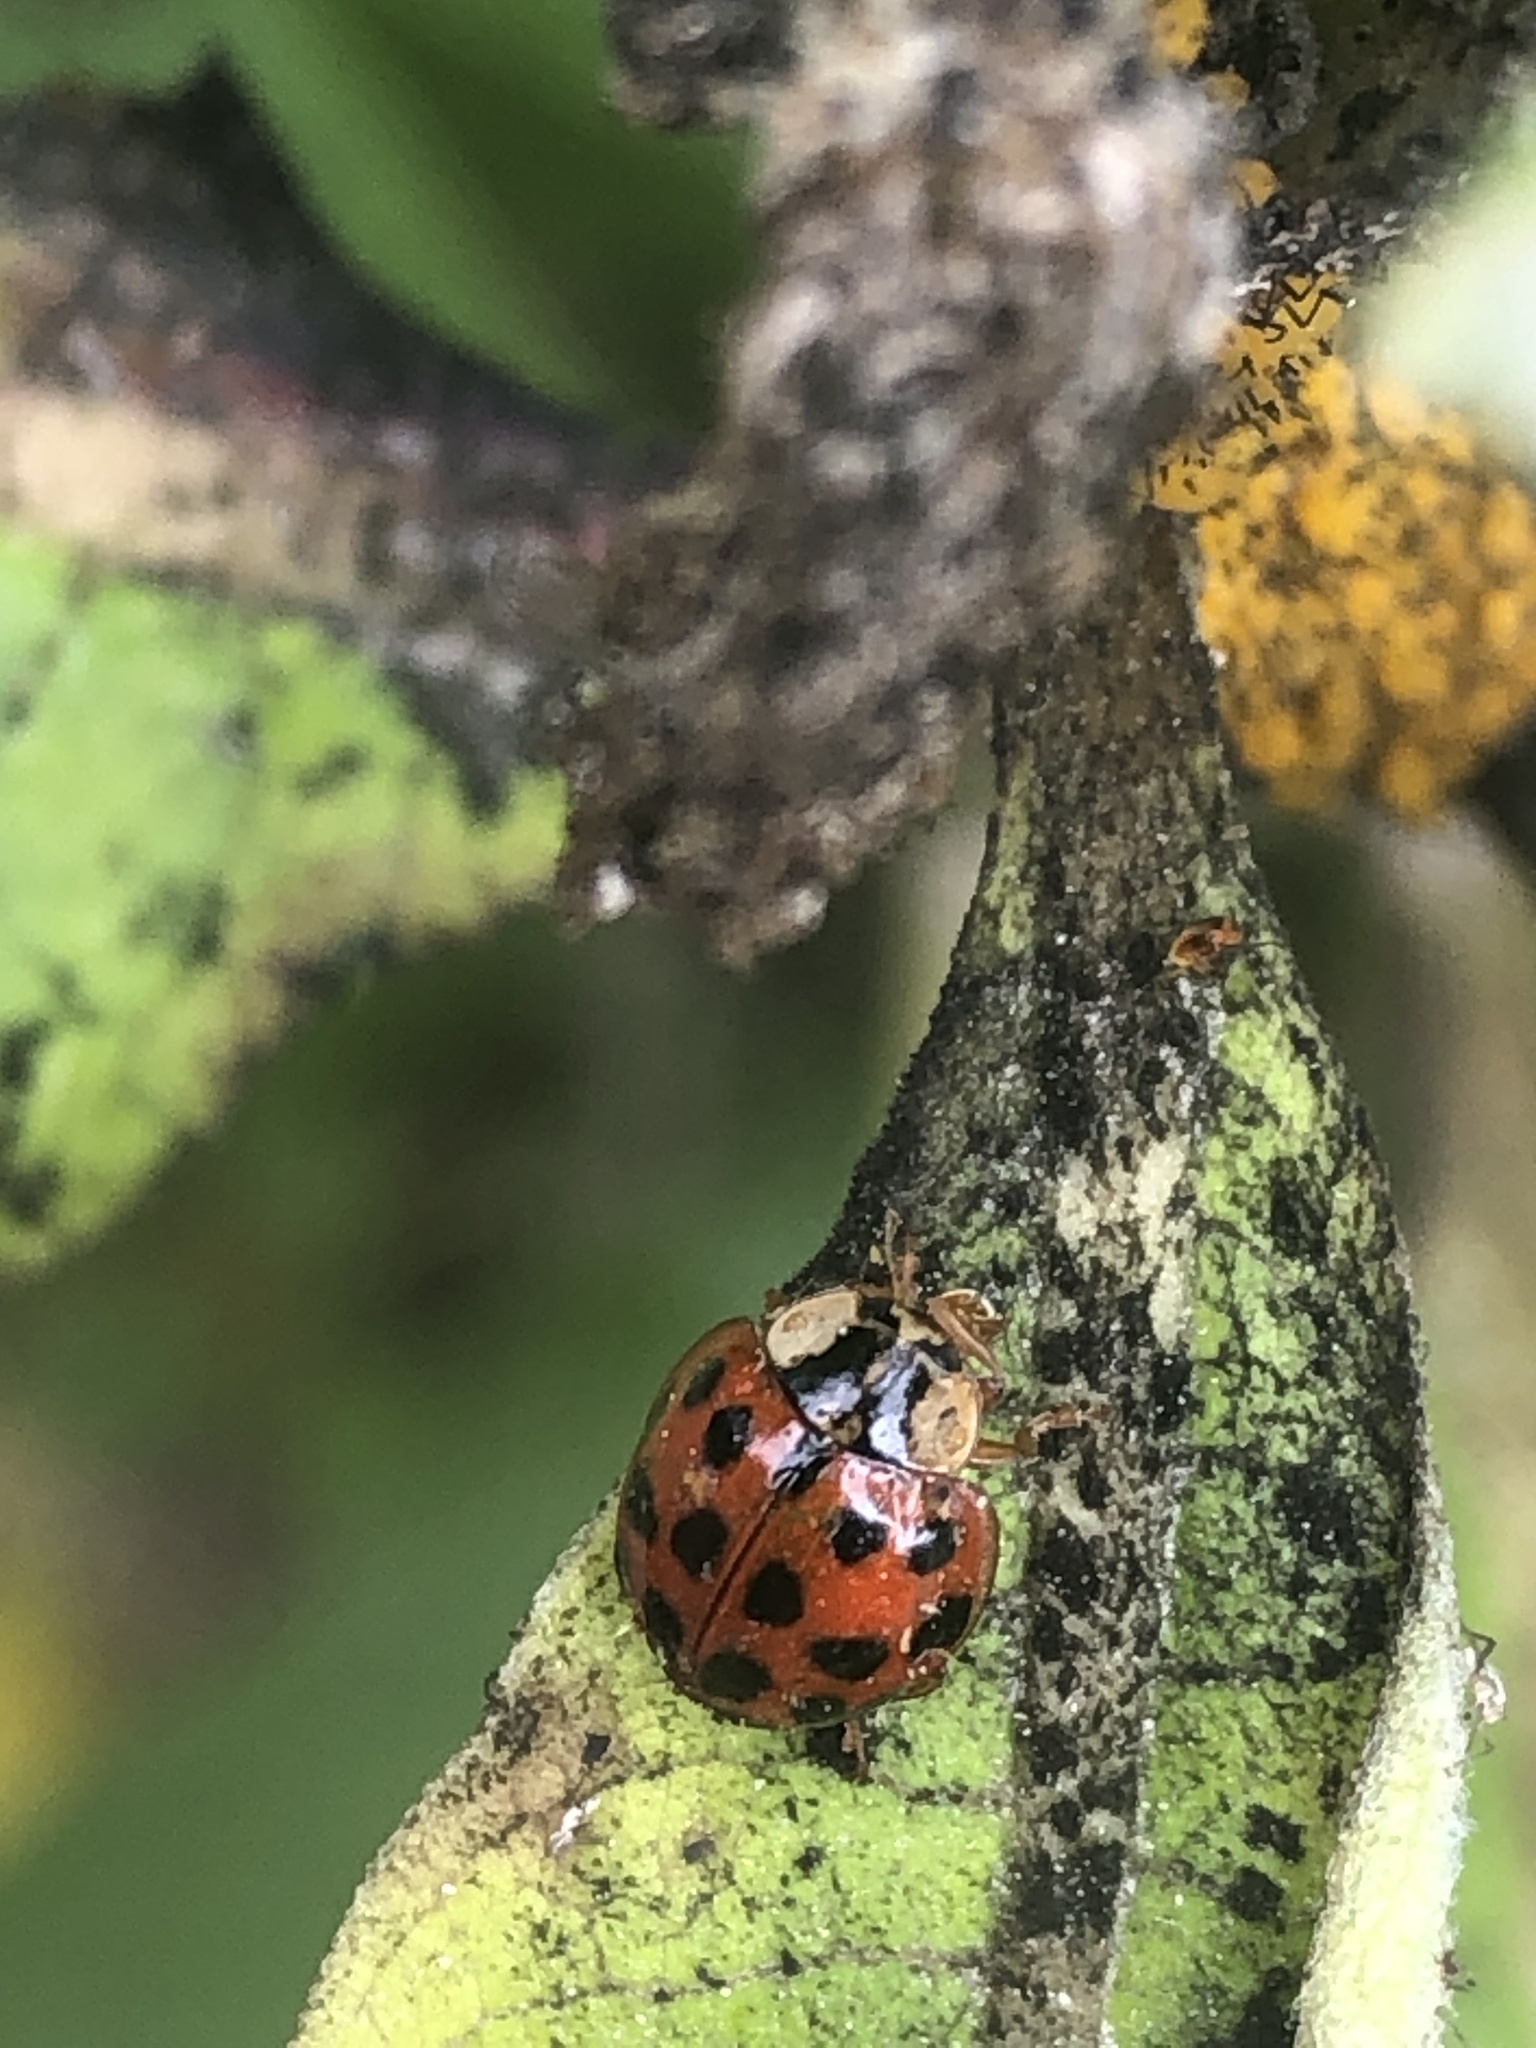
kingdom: Animalia
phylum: Arthropoda
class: Insecta
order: Coleoptera
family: Coccinellidae
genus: Harmonia
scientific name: Harmonia axyridis
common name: Harlequin ladybird
